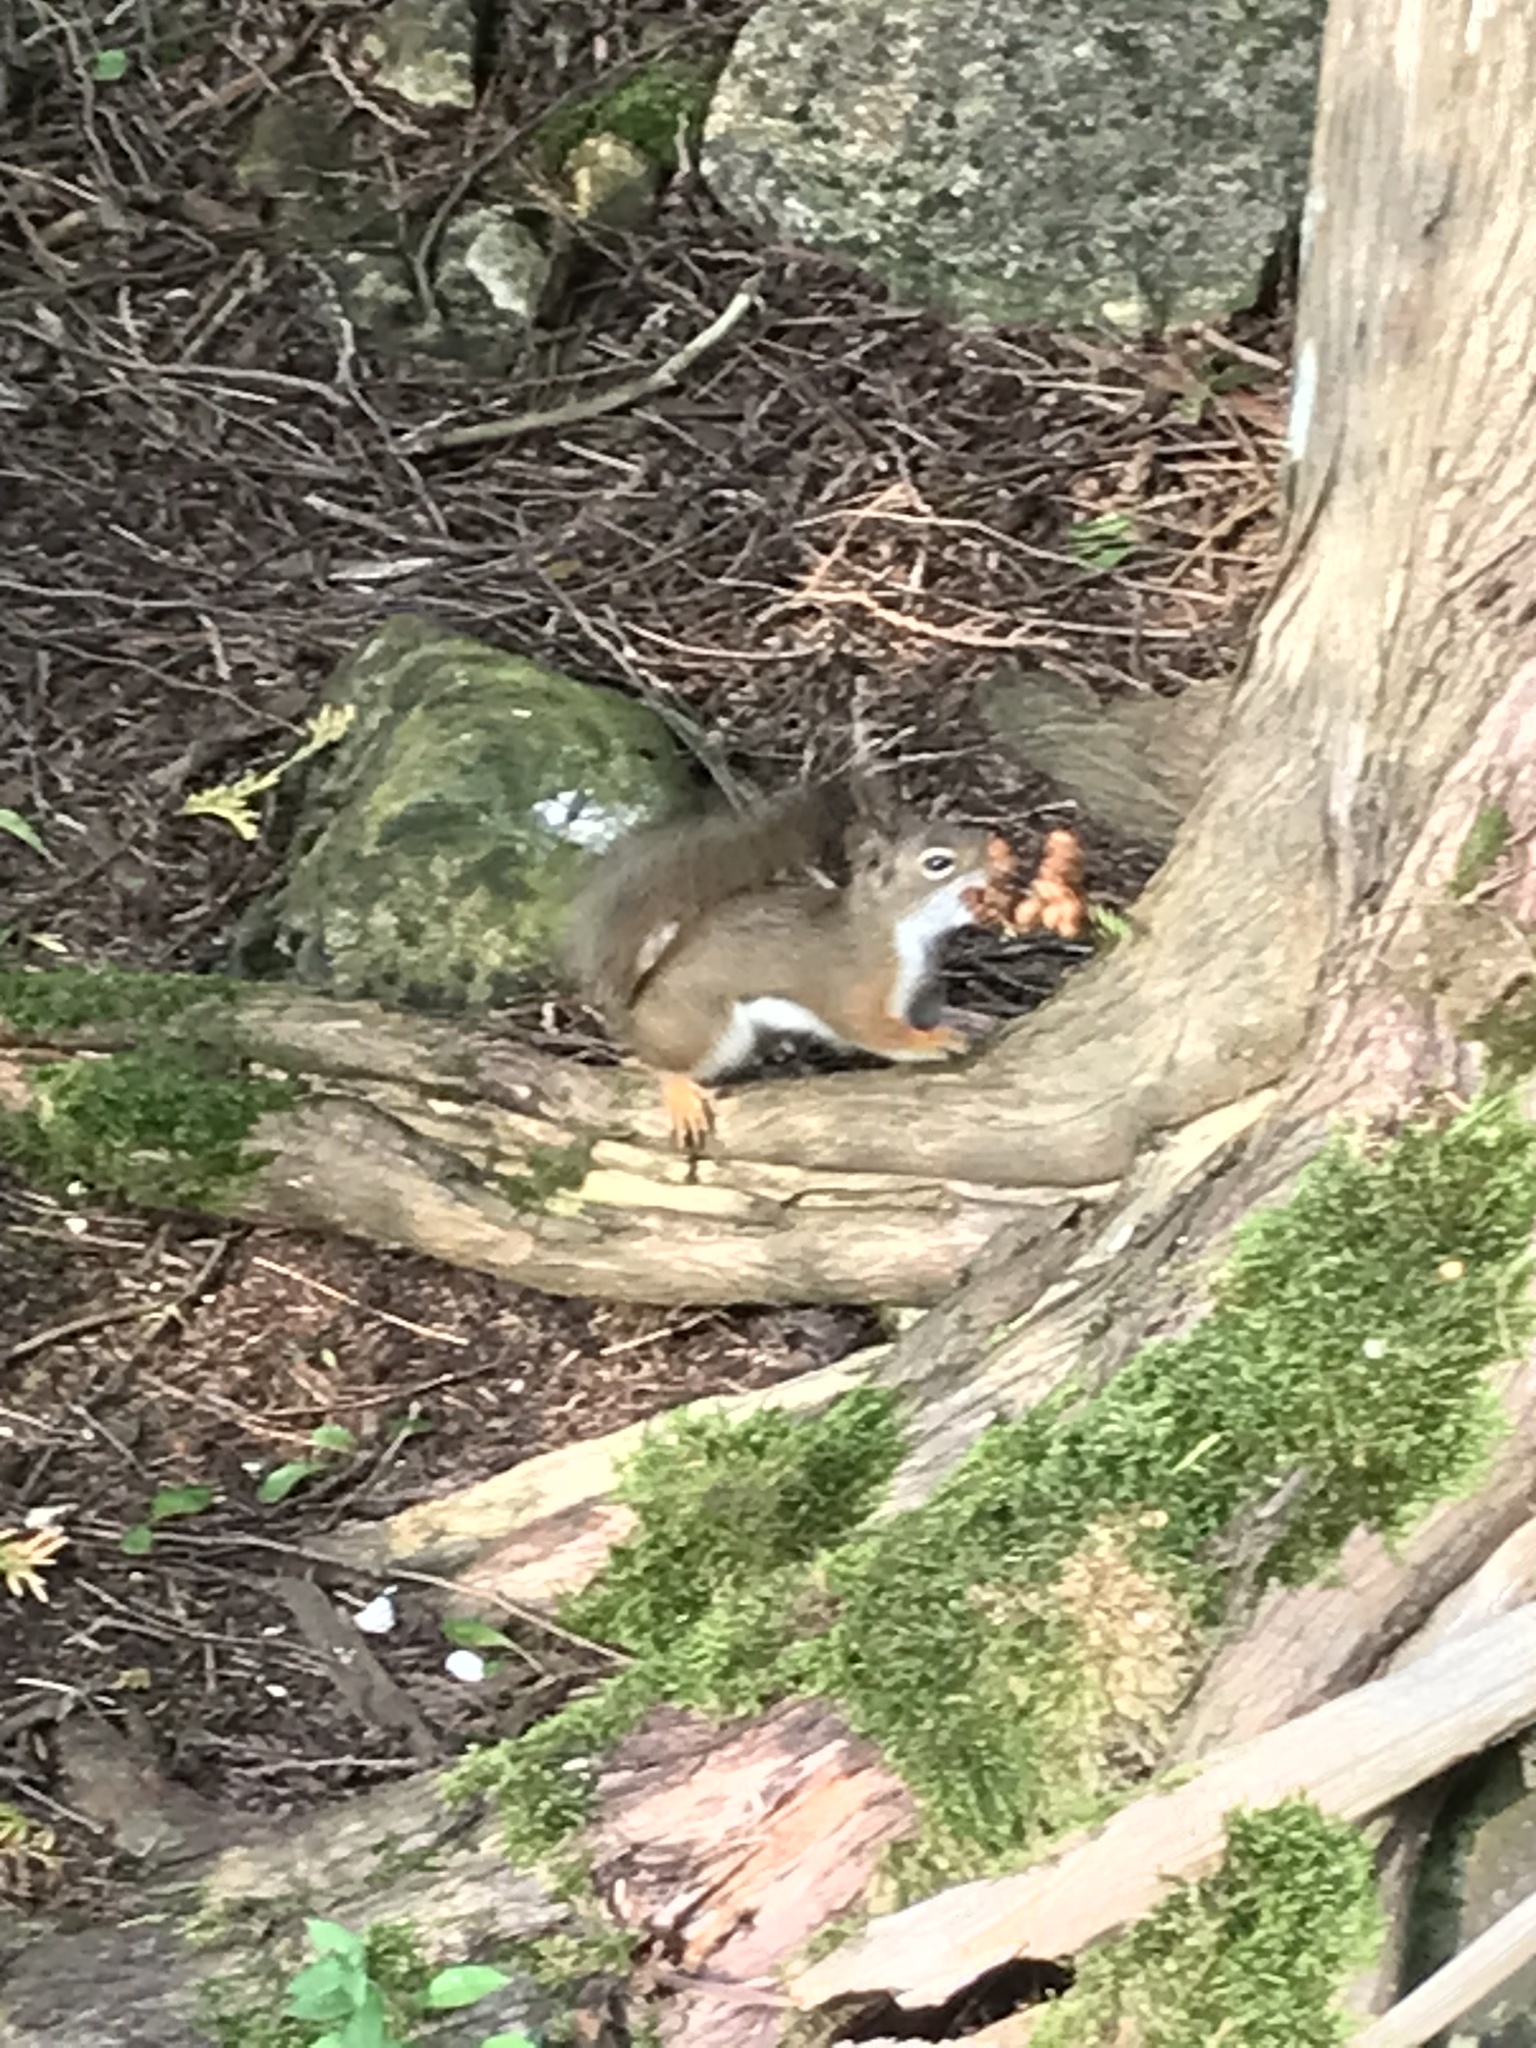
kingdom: Animalia
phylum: Chordata
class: Mammalia
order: Rodentia
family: Sciuridae
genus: Tamiasciurus
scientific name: Tamiasciurus hudsonicus
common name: Red squirrel
